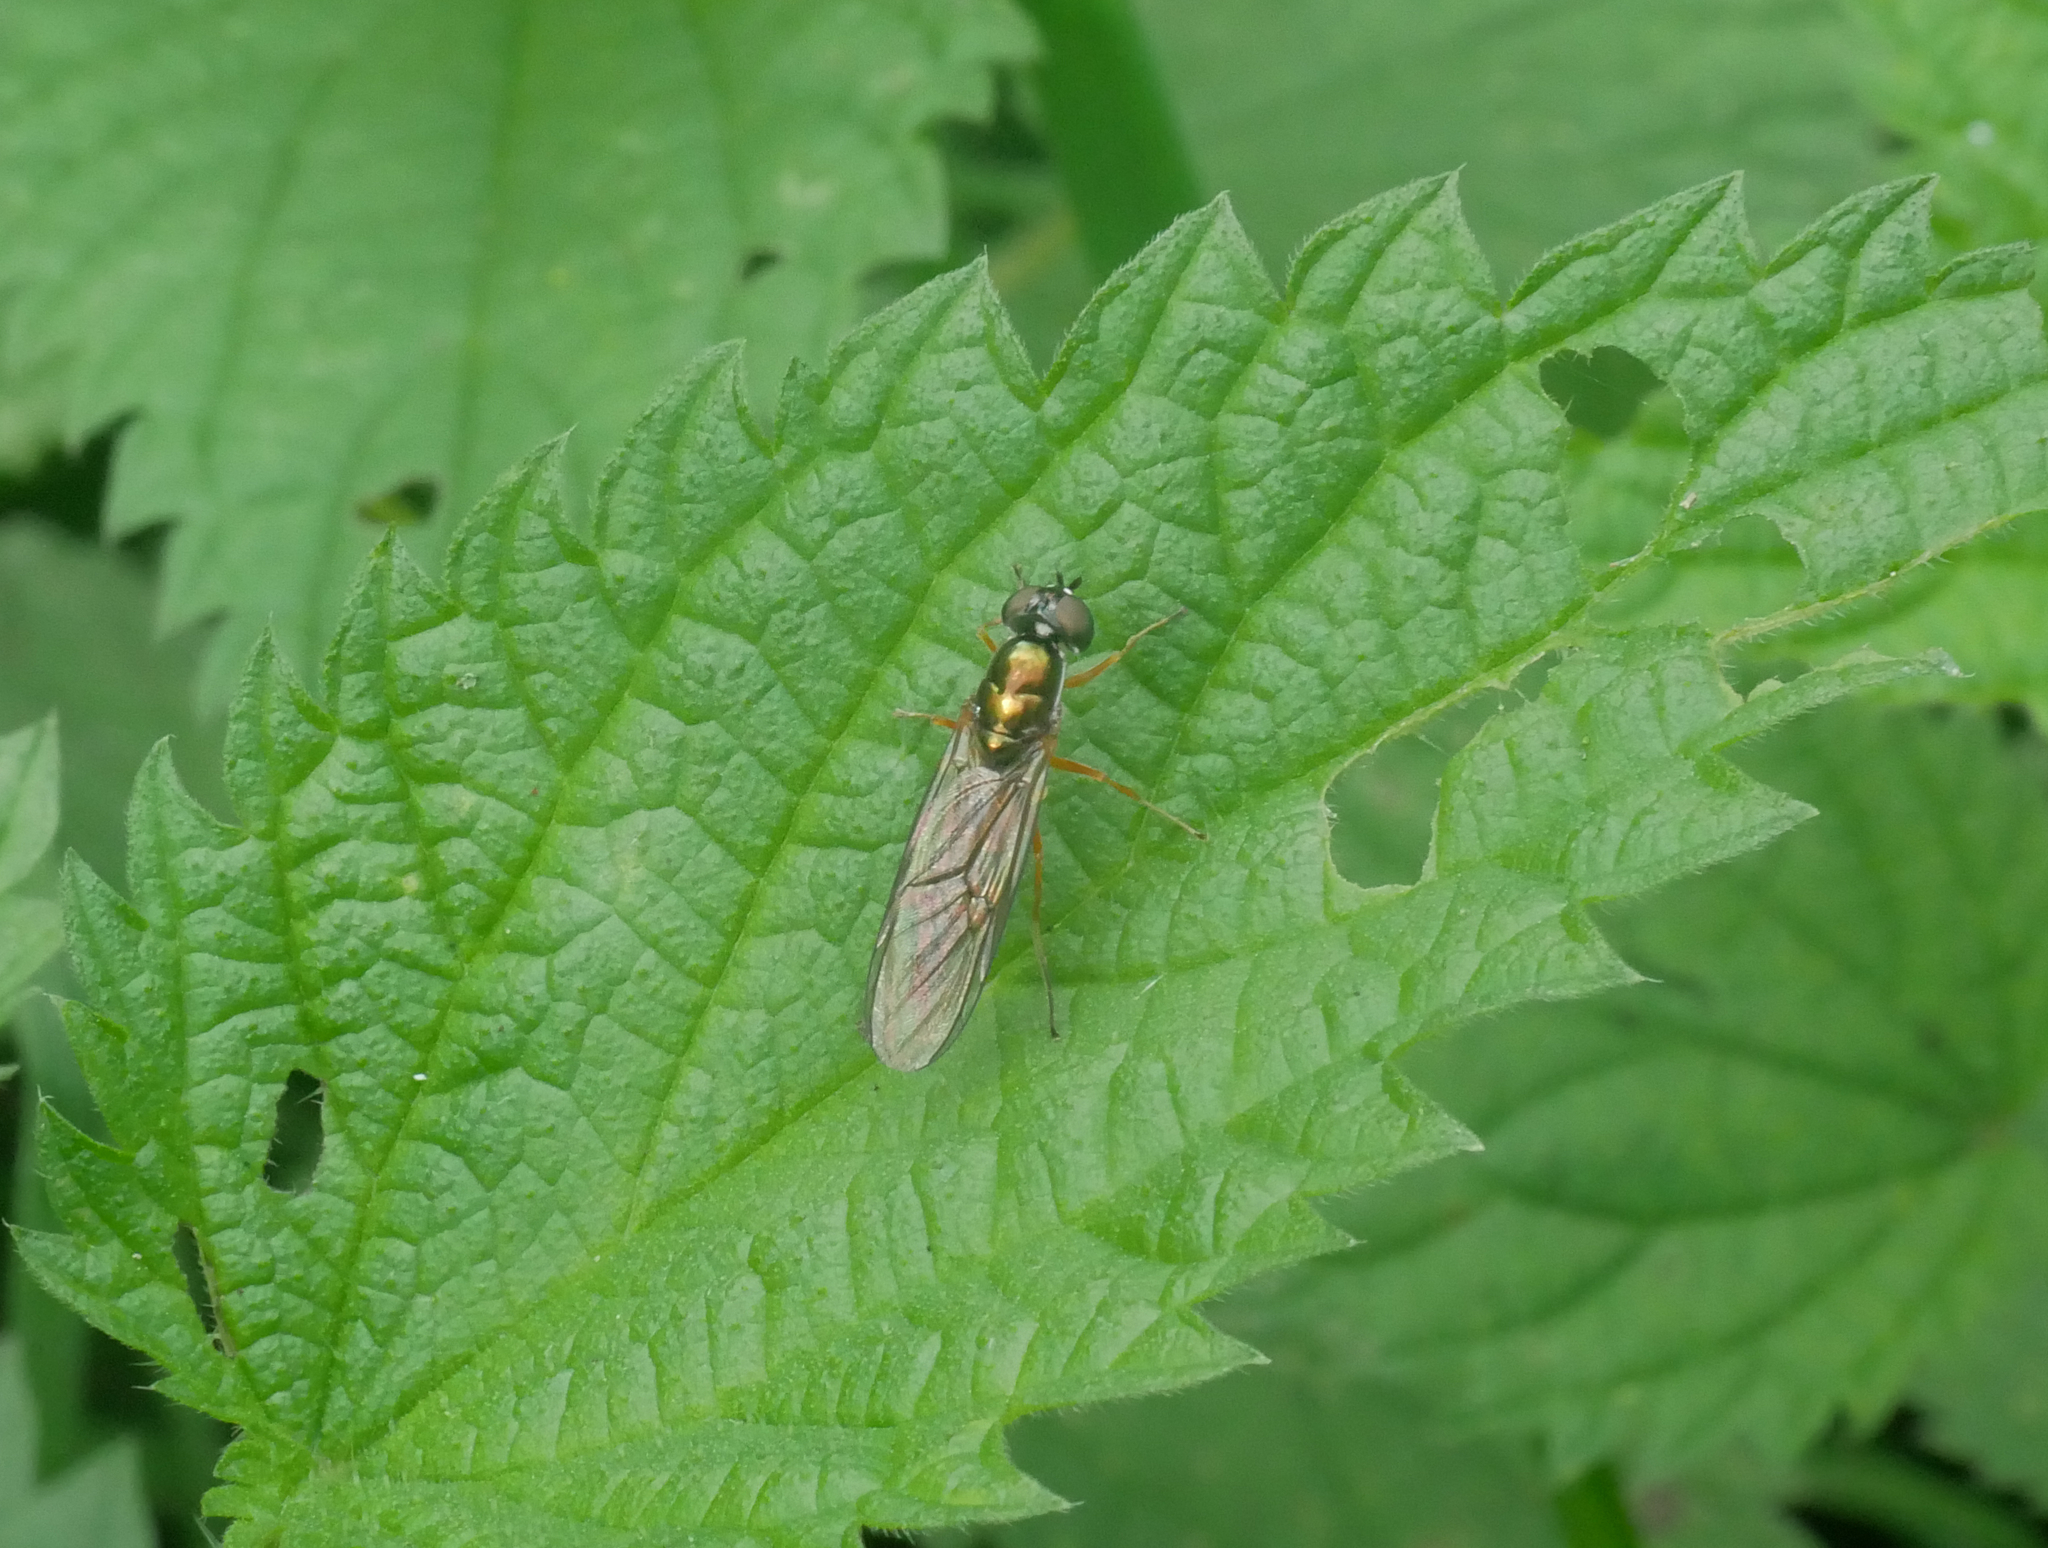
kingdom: Animalia
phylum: Arthropoda
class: Insecta
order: Diptera
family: Stratiomyidae
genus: Sargus
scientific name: Sargus bipunctatus
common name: Twin-spot centurion
